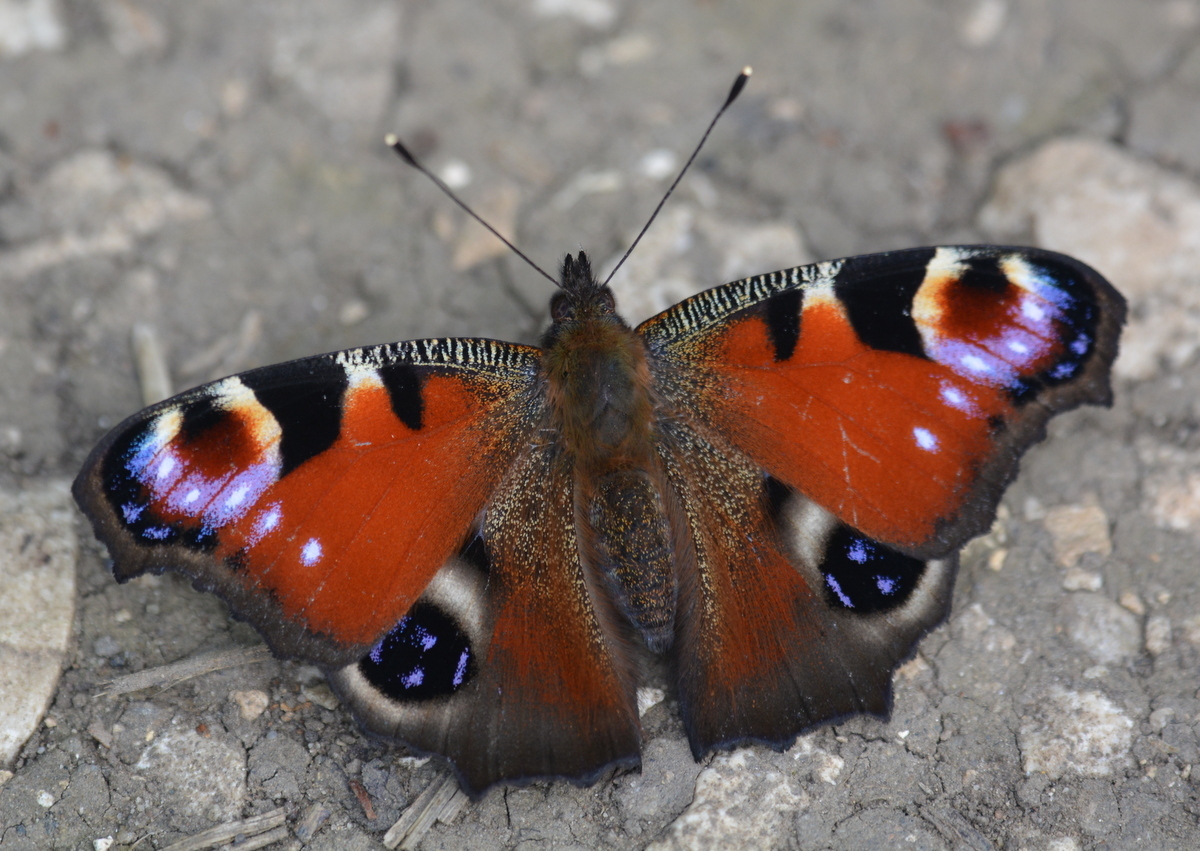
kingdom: Animalia
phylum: Arthropoda
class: Insecta
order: Lepidoptera
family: Nymphalidae
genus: Aglais
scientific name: Aglais io
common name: Peacock
